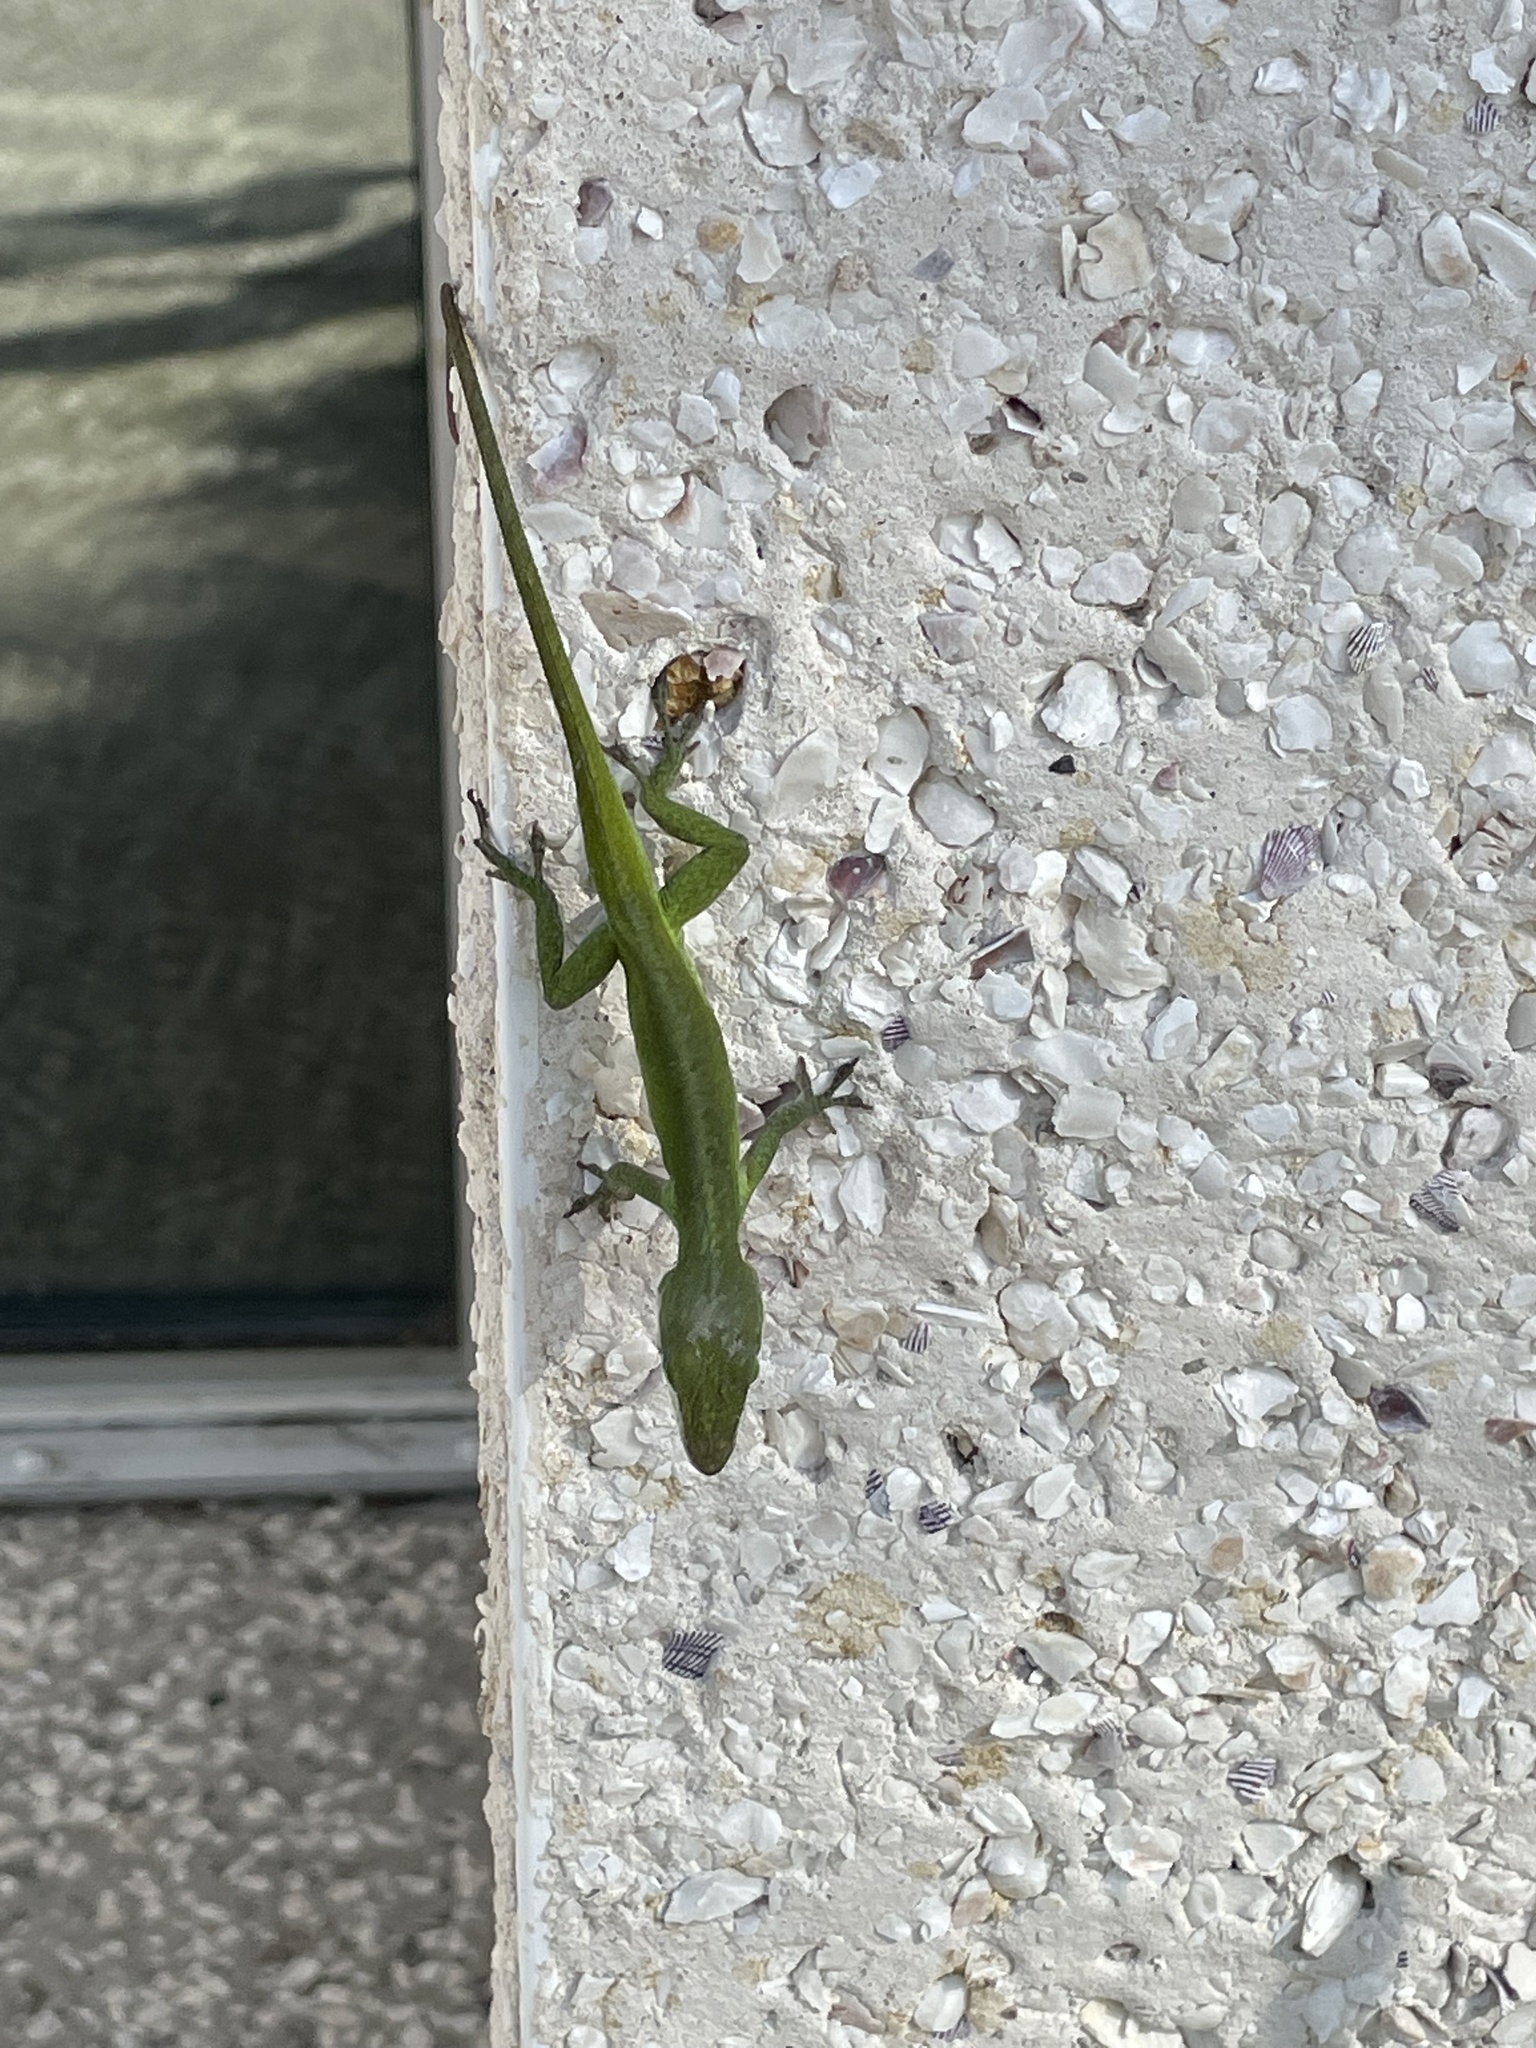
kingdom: Animalia
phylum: Chordata
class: Squamata
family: Dactyloidae
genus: Anolis
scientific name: Anolis carolinensis
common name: Green anole
